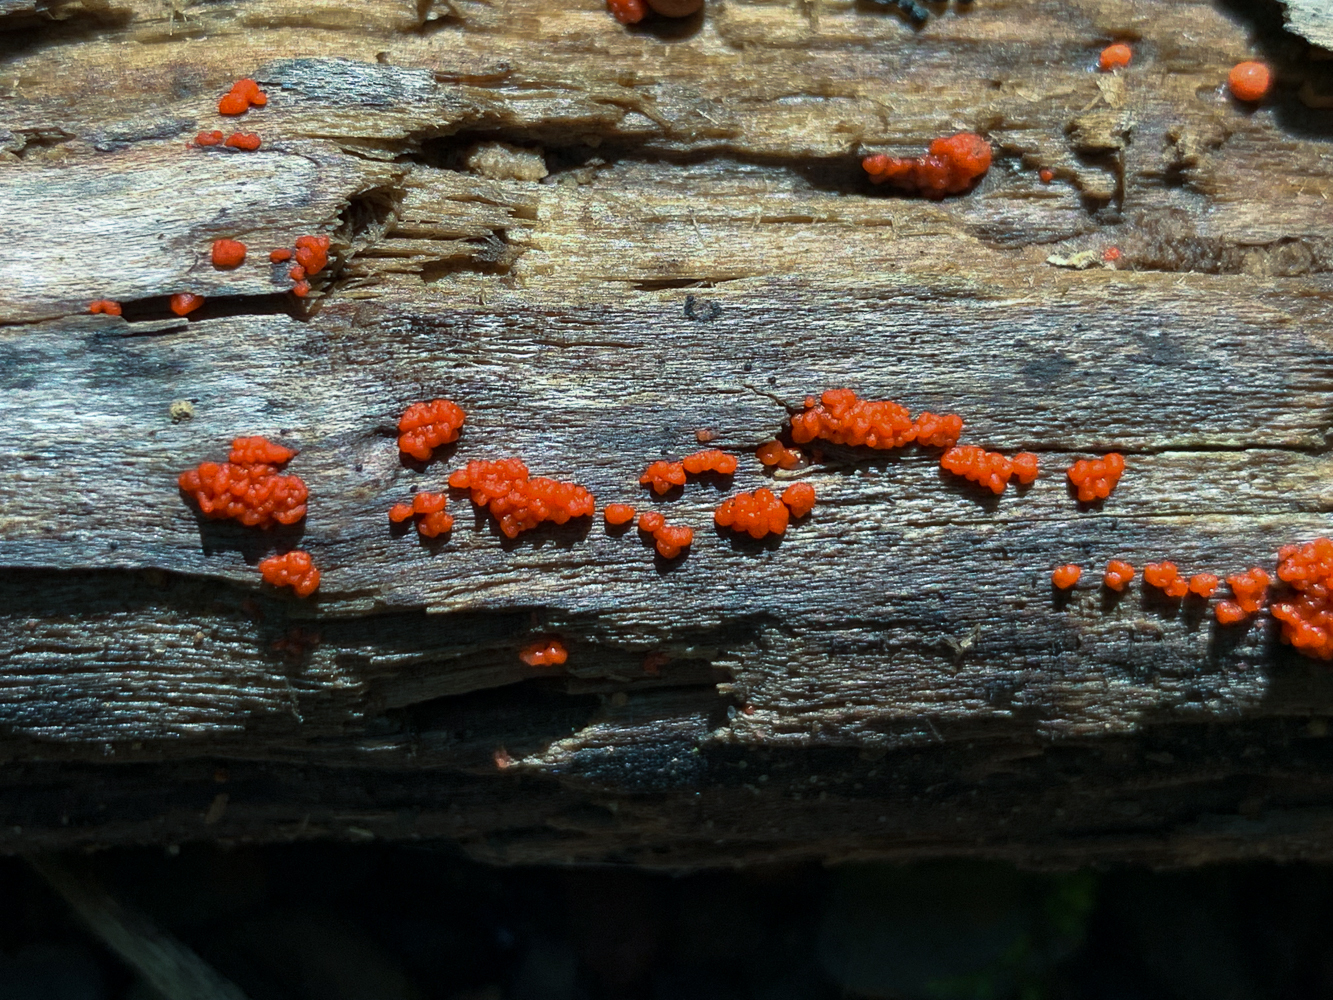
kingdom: Fungi
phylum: Basidiomycota
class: Agaricomycetes
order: Cantharellales
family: Tulasnellaceae
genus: Tulasnella
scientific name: Tulasnella aurantiaca
